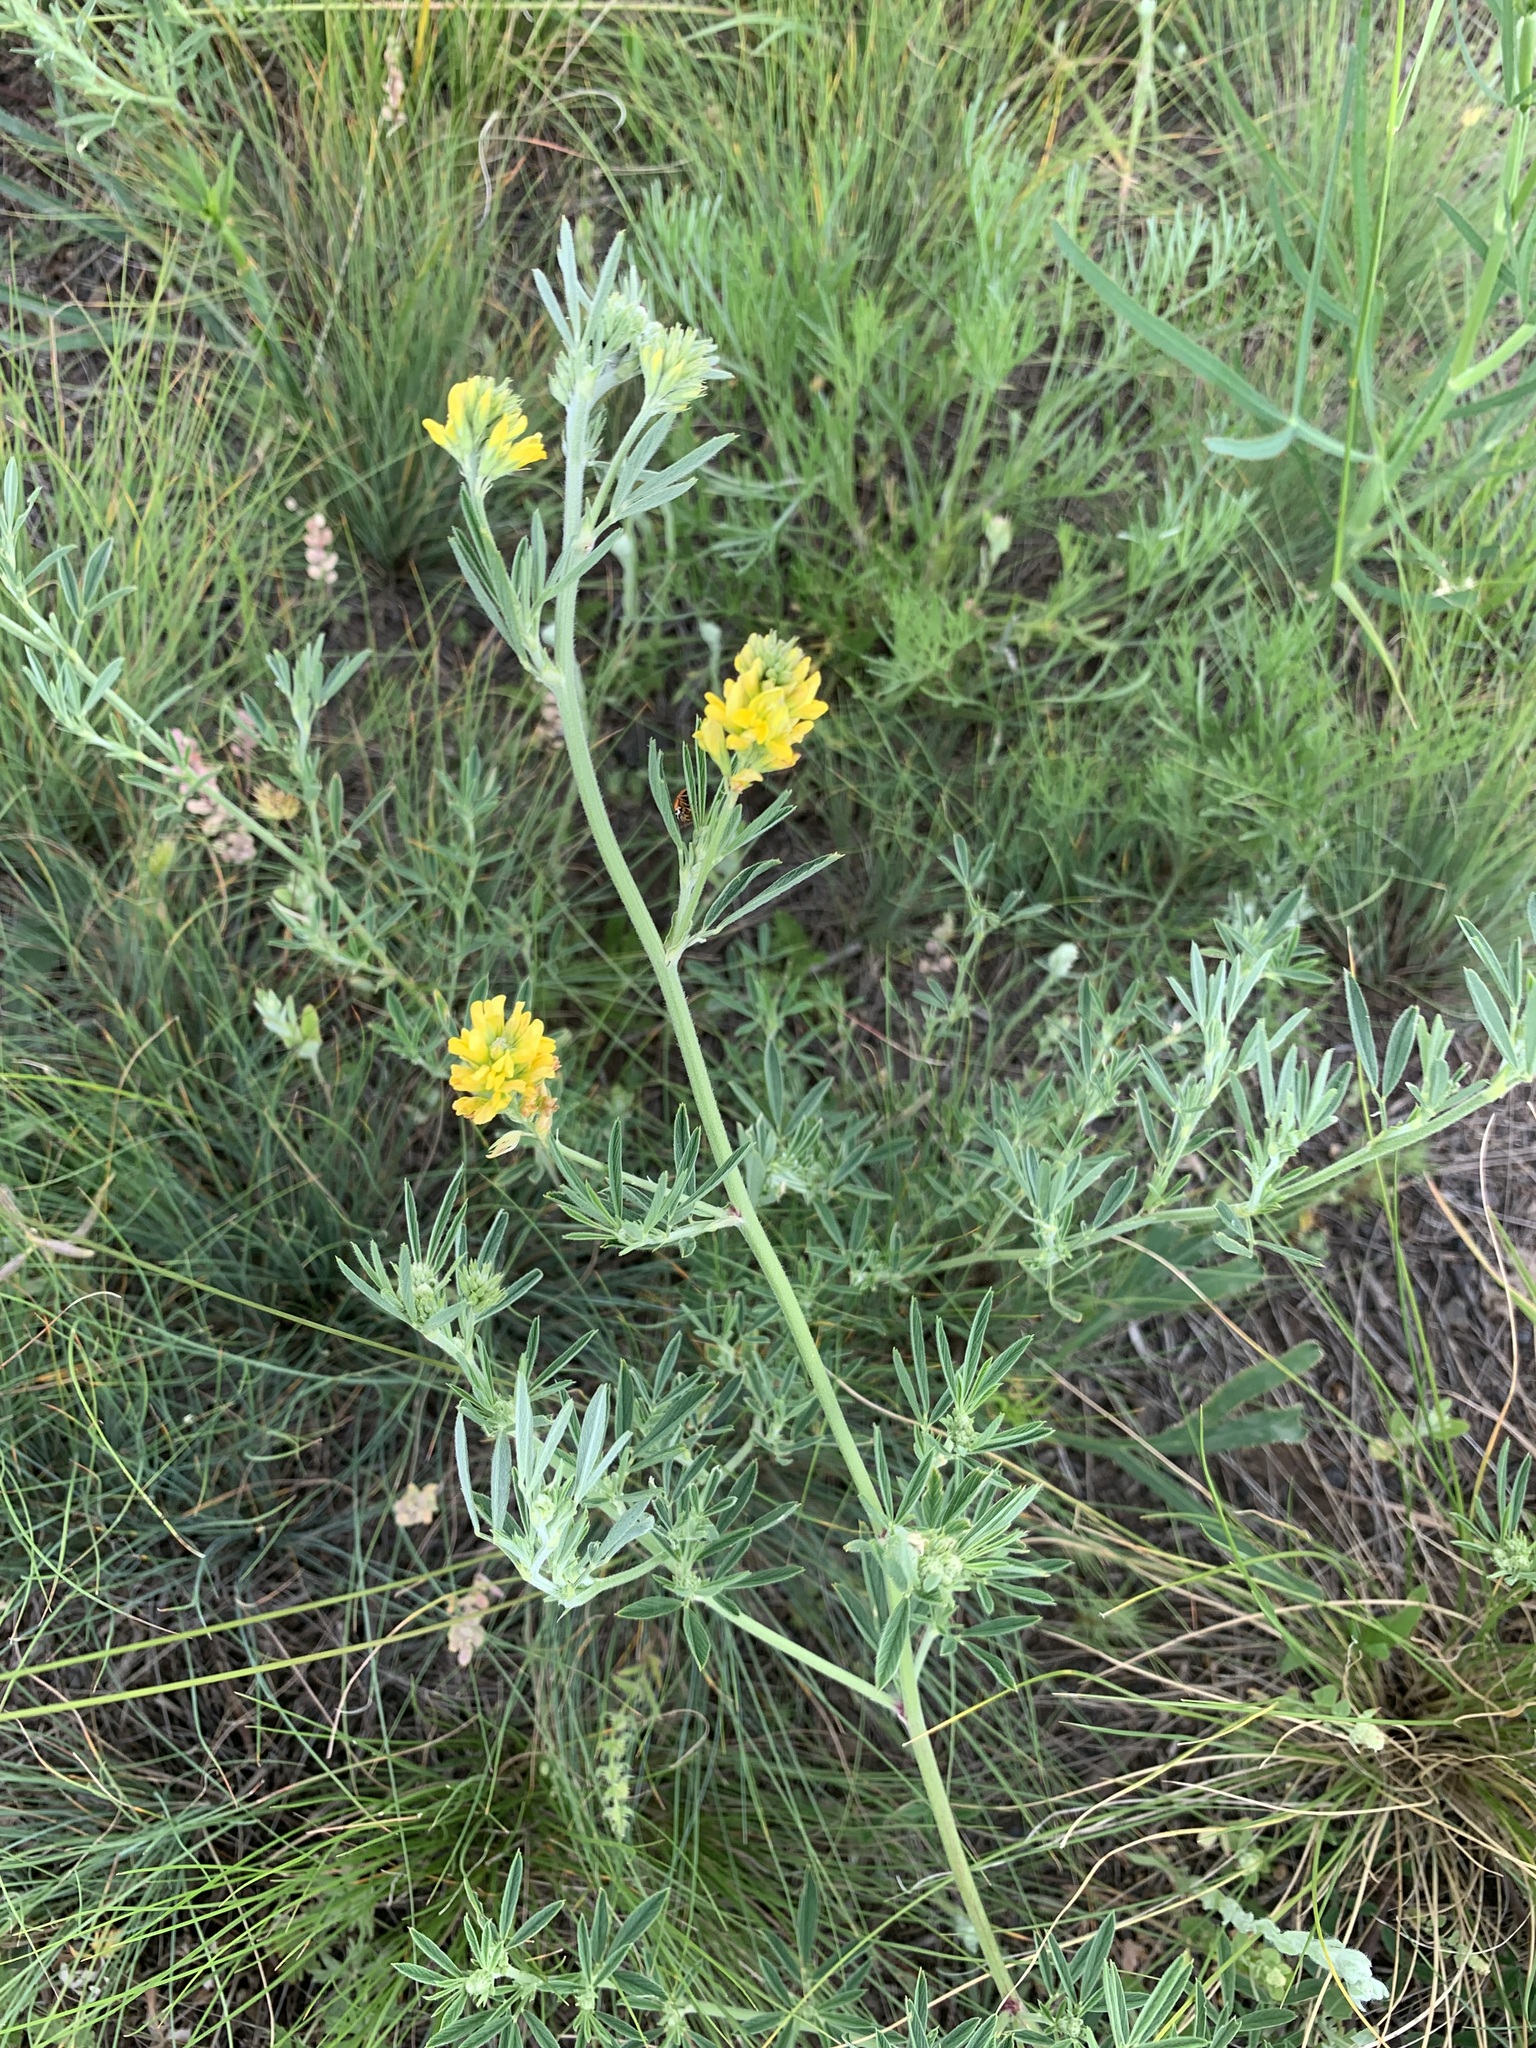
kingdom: Plantae
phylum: Tracheophyta
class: Magnoliopsida
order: Fabales
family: Fabaceae
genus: Medicago
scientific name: Medicago falcata
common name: Sickle medick
